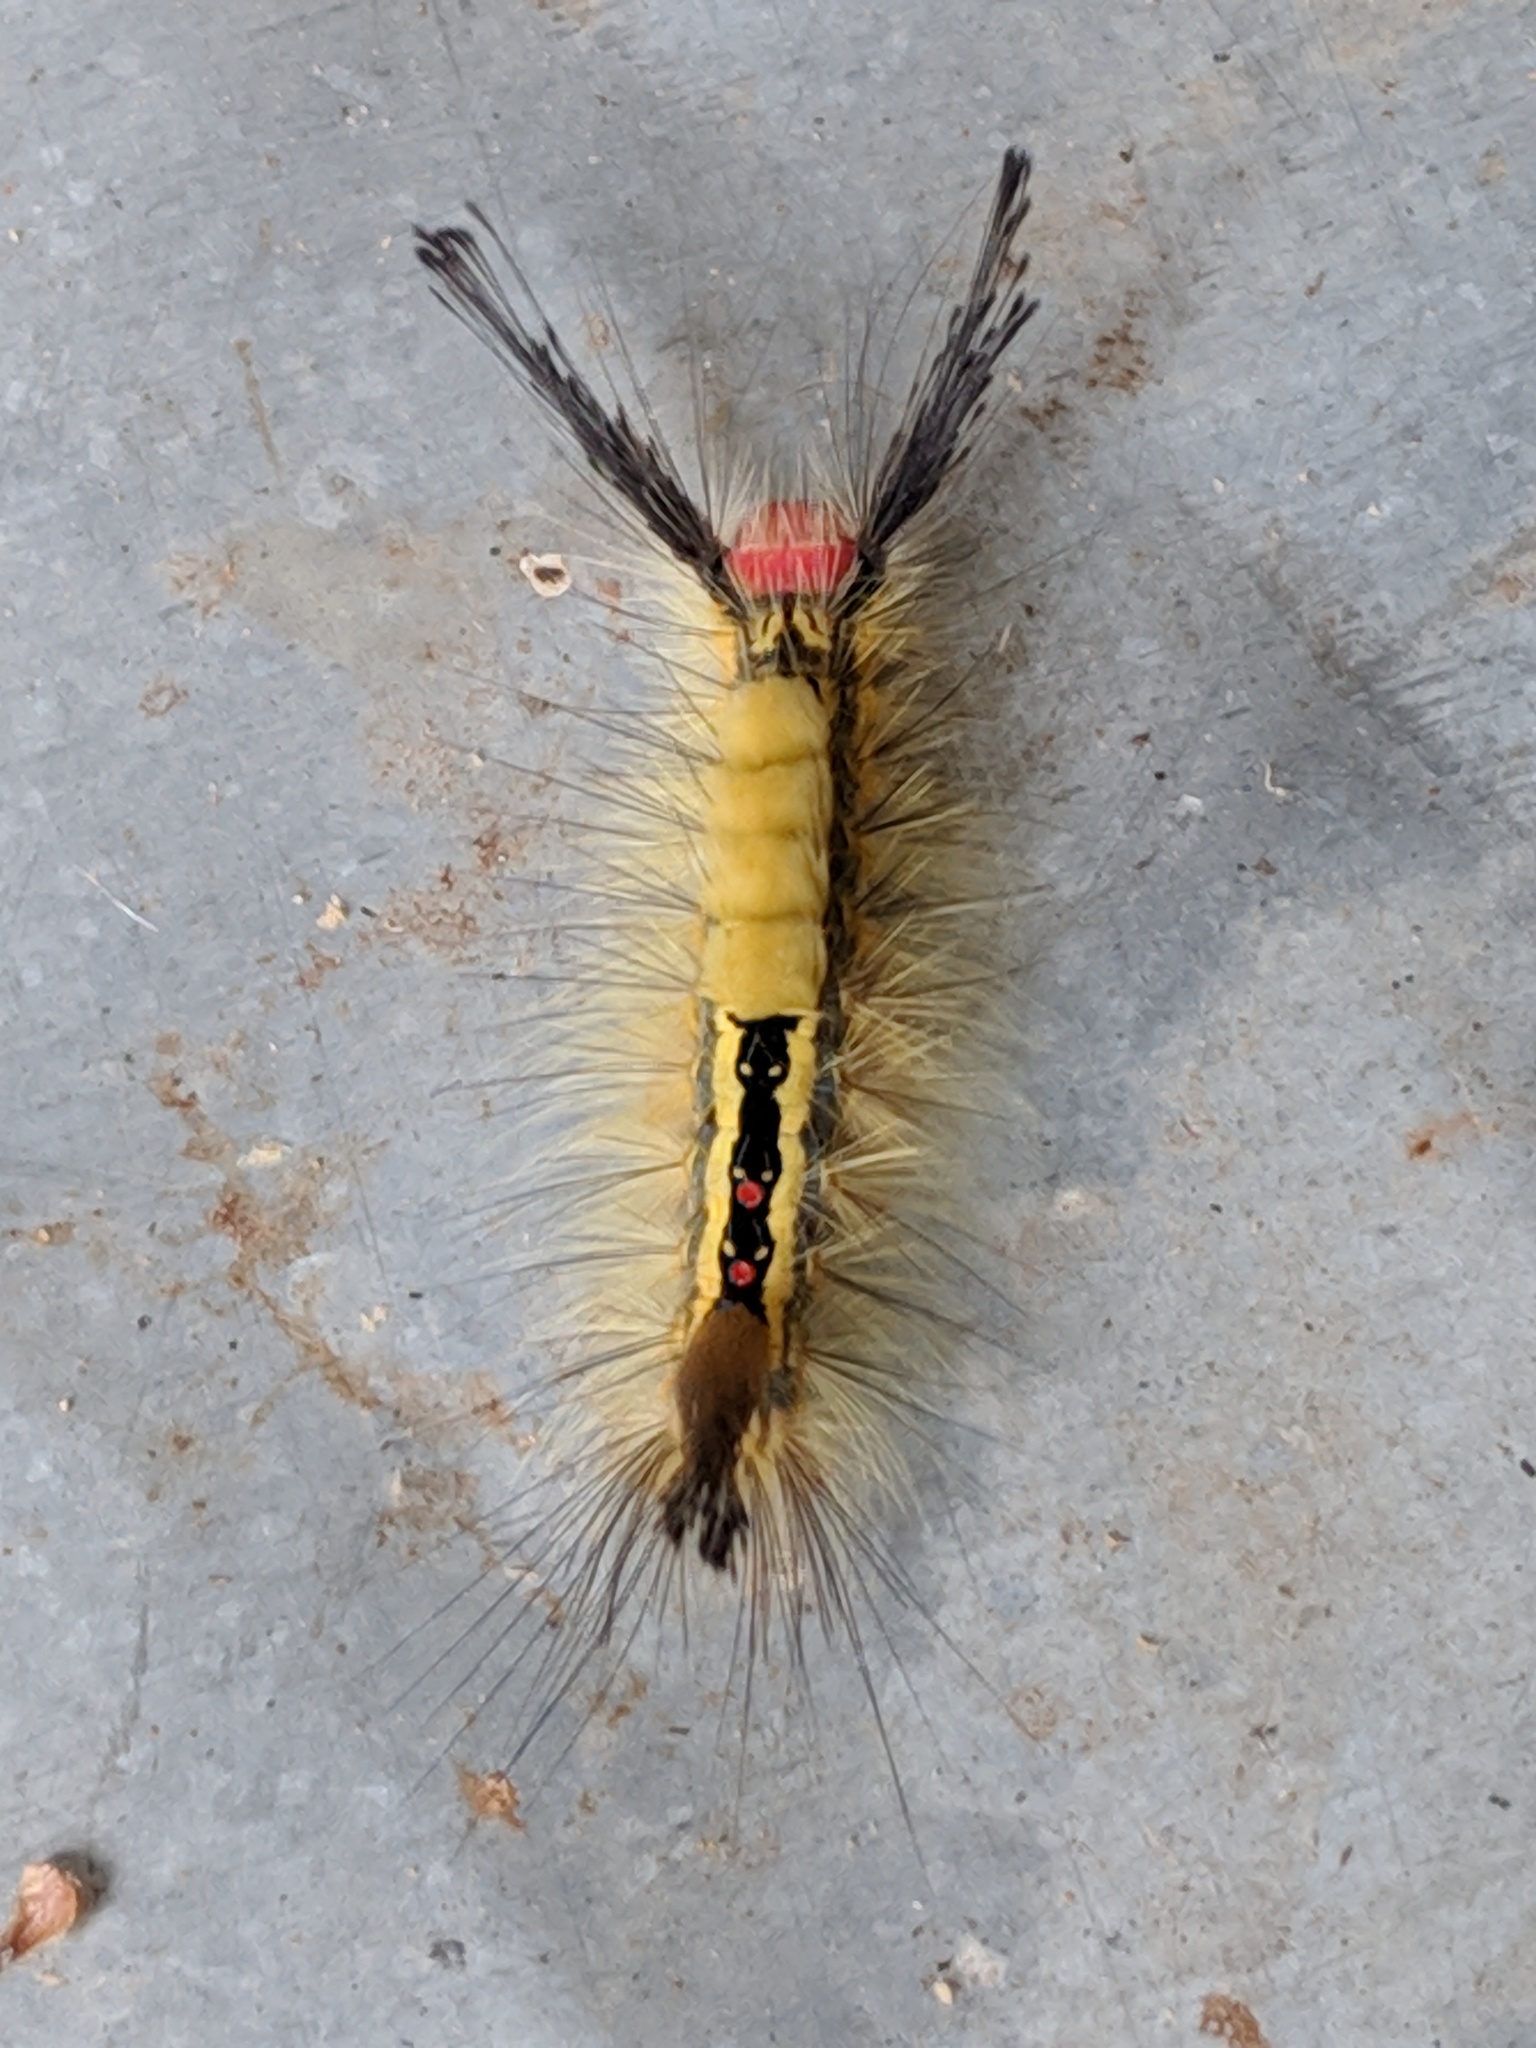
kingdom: Animalia
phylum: Arthropoda
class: Insecta
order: Lepidoptera
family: Erebidae
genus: Orgyia
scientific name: Orgyia leucostigma
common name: White-marked tussock moth
